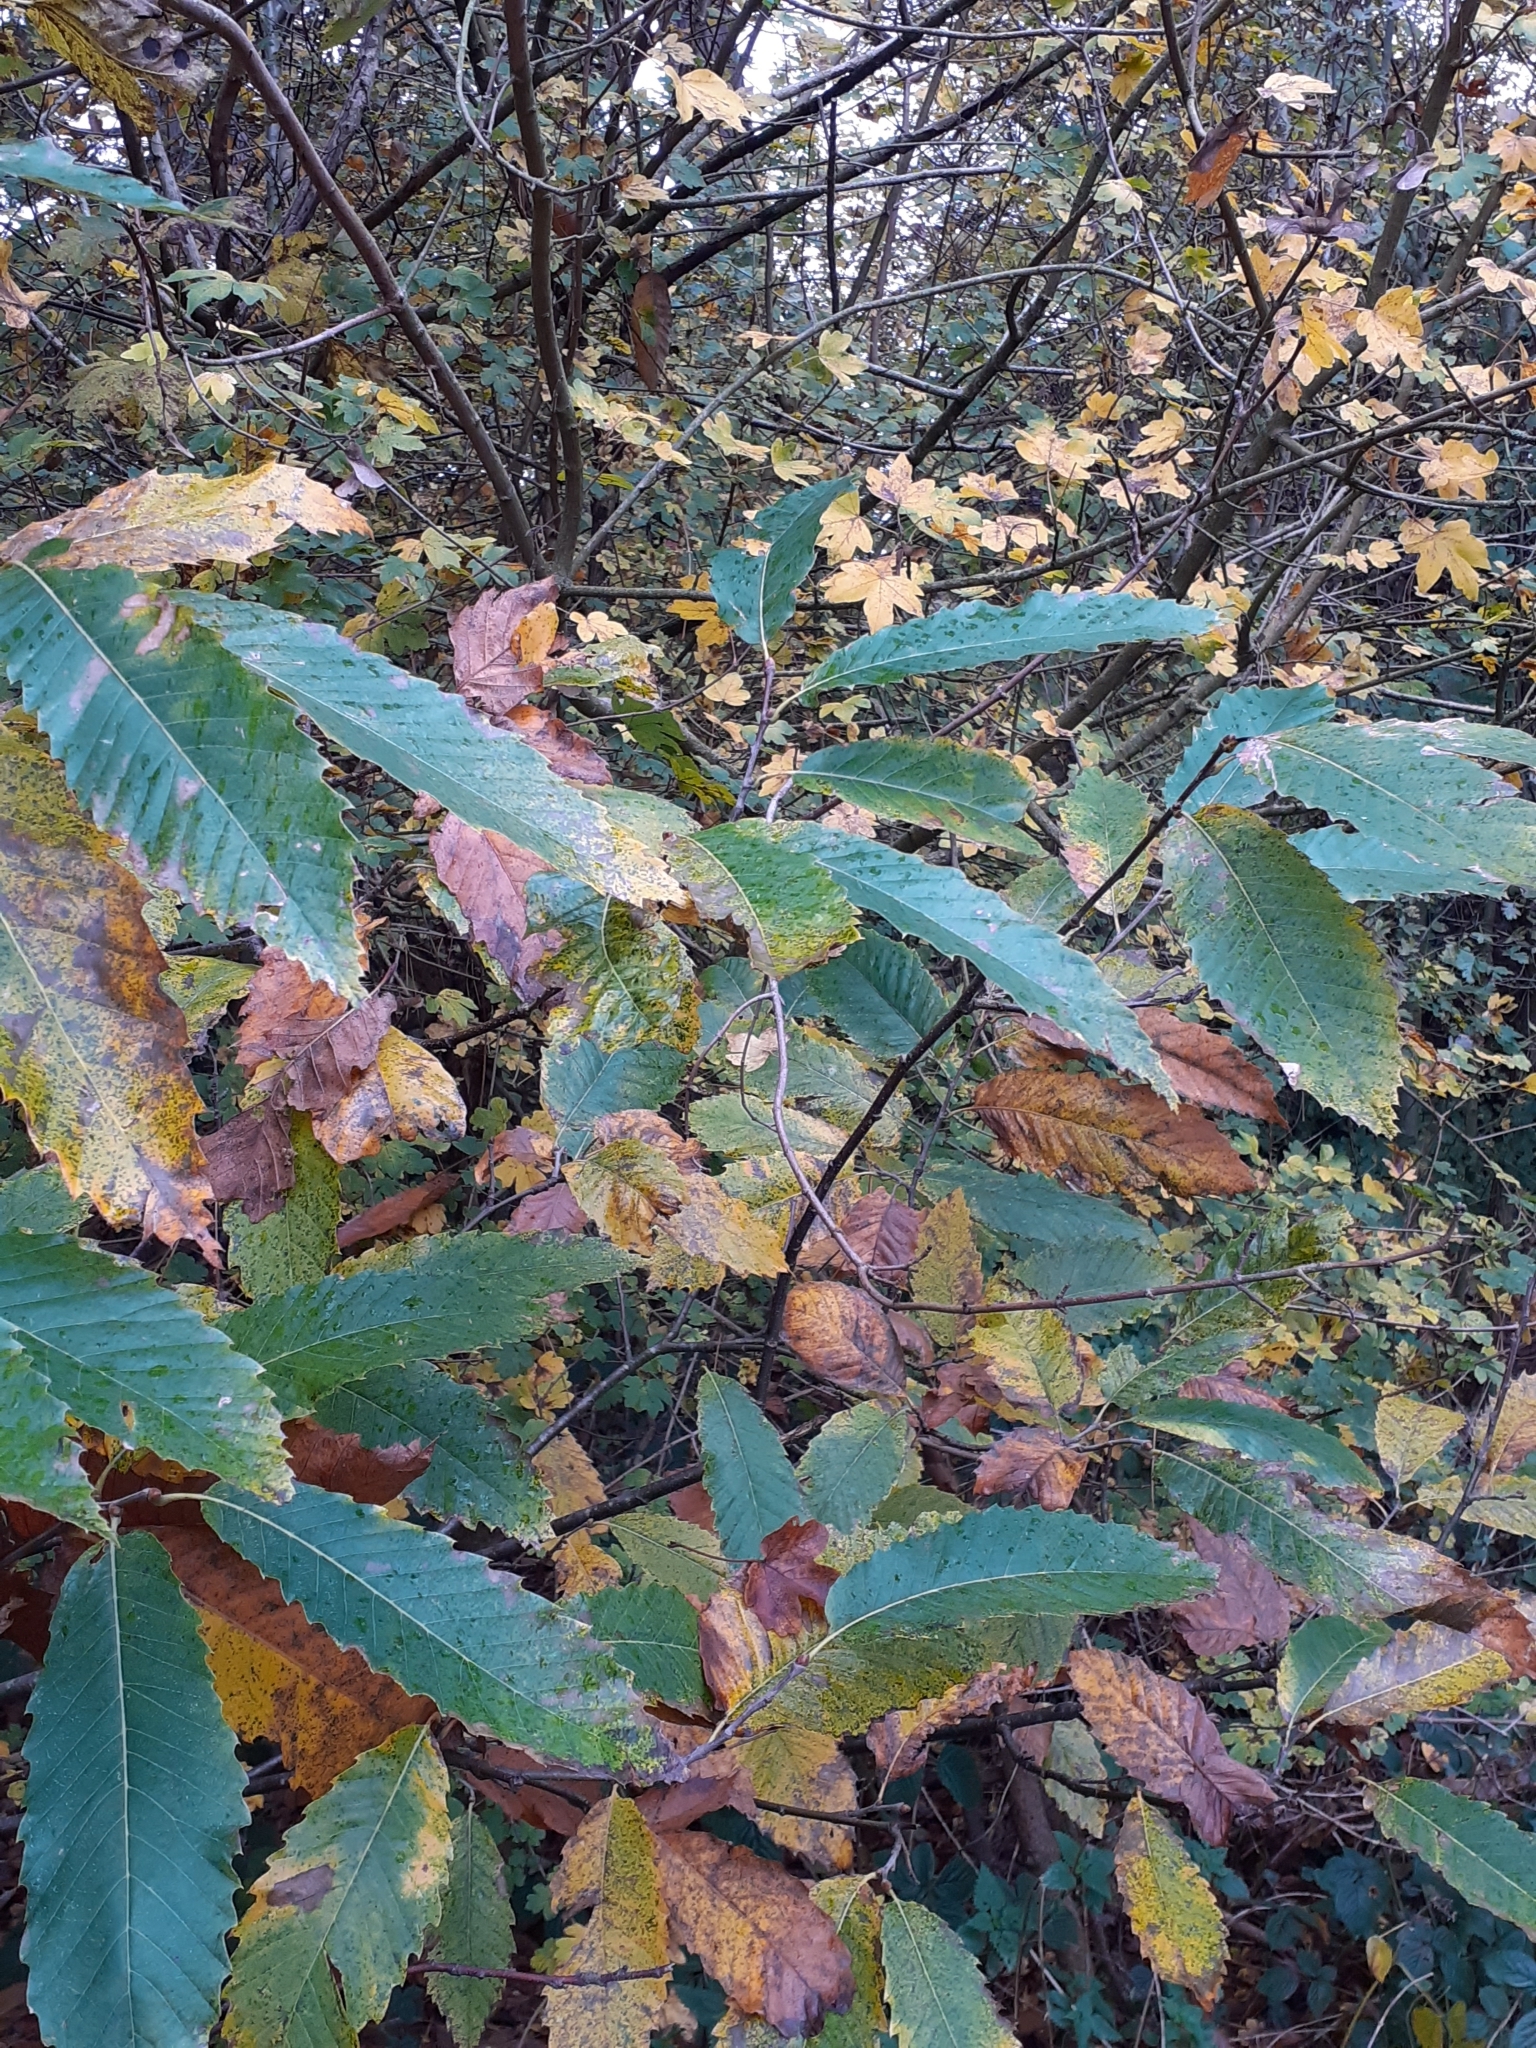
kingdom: Plantae
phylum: Tracheophyta
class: Magnoliopsida
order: Fagales
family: Fagaceae
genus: Castanea
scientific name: Castanea sativa
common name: Sweet chestnut
